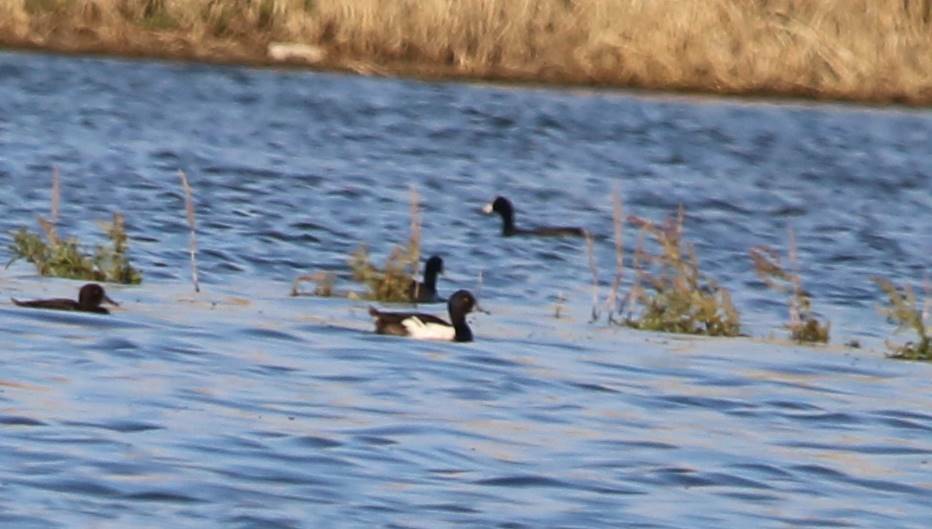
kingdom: Animalia
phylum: Chordata
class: Aves
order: Anseriformes
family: Anatidae
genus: Aythya
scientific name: Aythya fuligula
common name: Tufted duck
